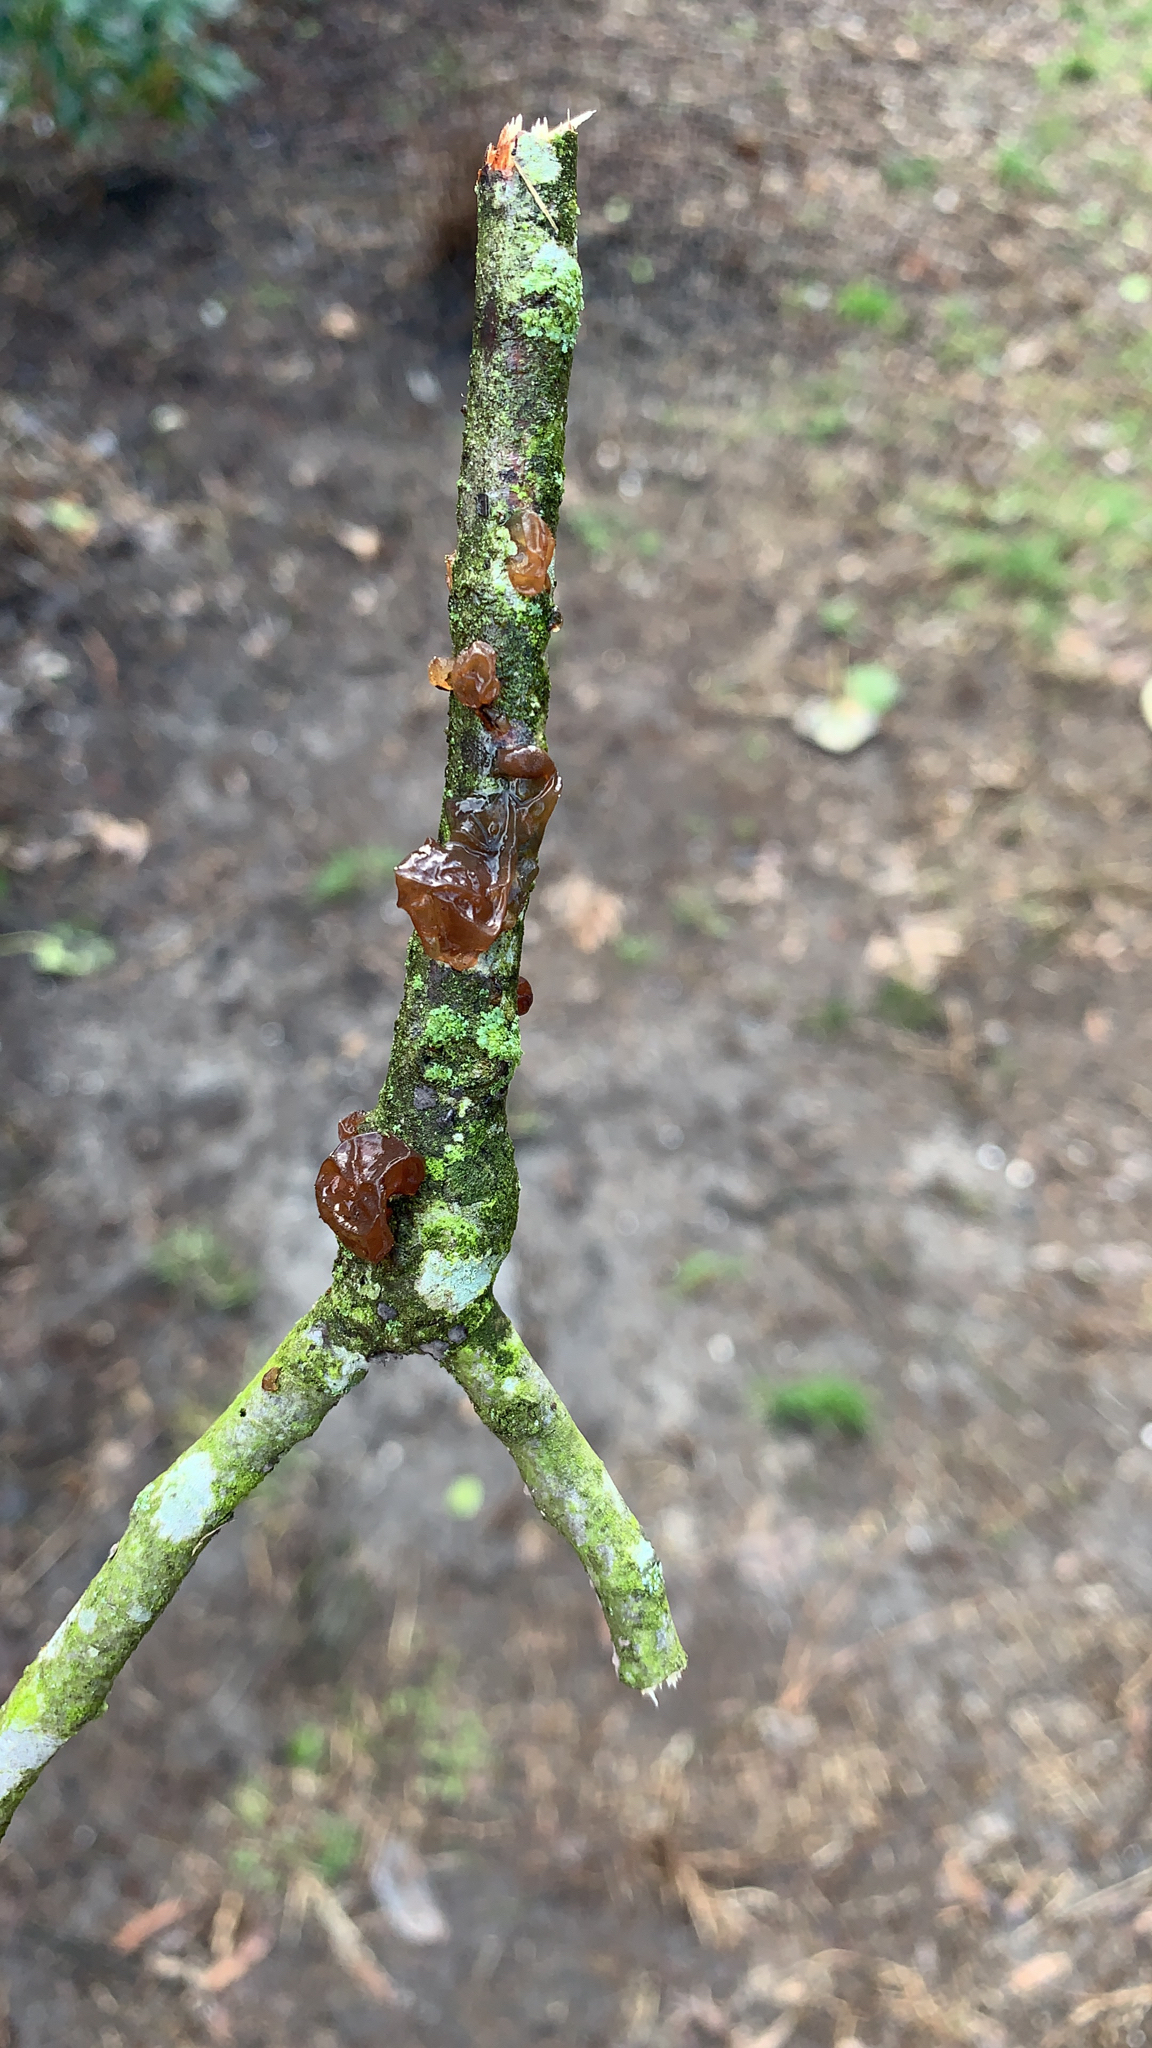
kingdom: Fungi
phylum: Basidiomycota
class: Agaricomycetes
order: Auriculariales
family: Auriculariaceae
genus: Exidia
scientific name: Exidia
